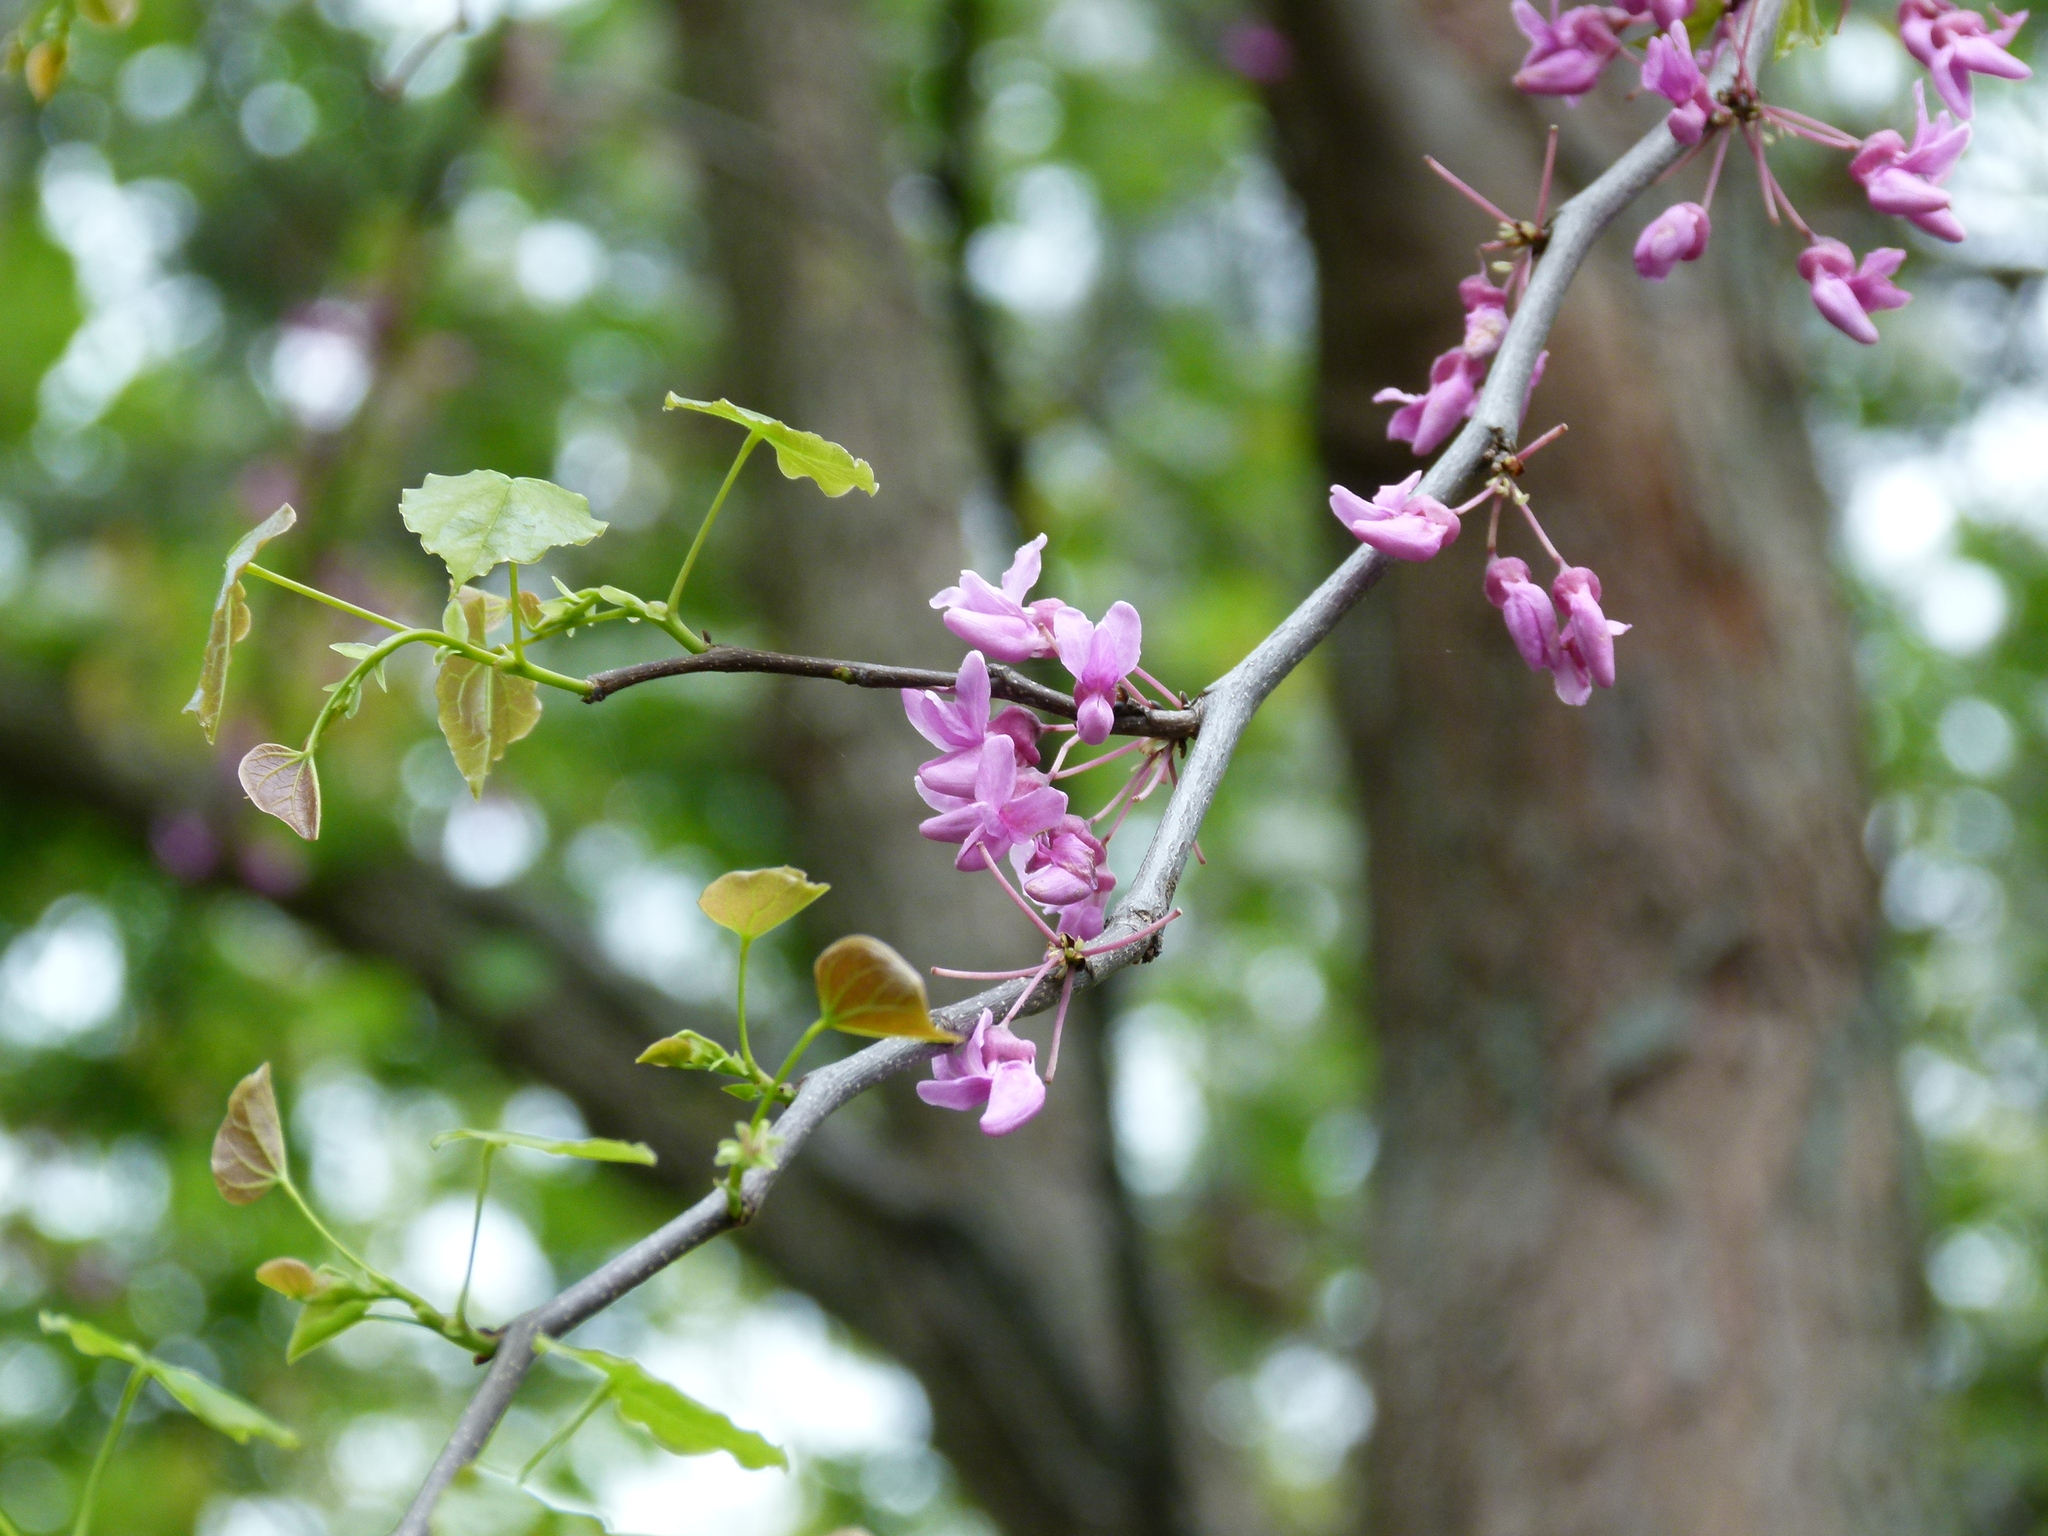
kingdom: Plantae
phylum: Tracheophyta
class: Magnoliopsida
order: Fabales
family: Fabaceae
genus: Cercis
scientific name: Cercis canadensis
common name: Eastern redbud
